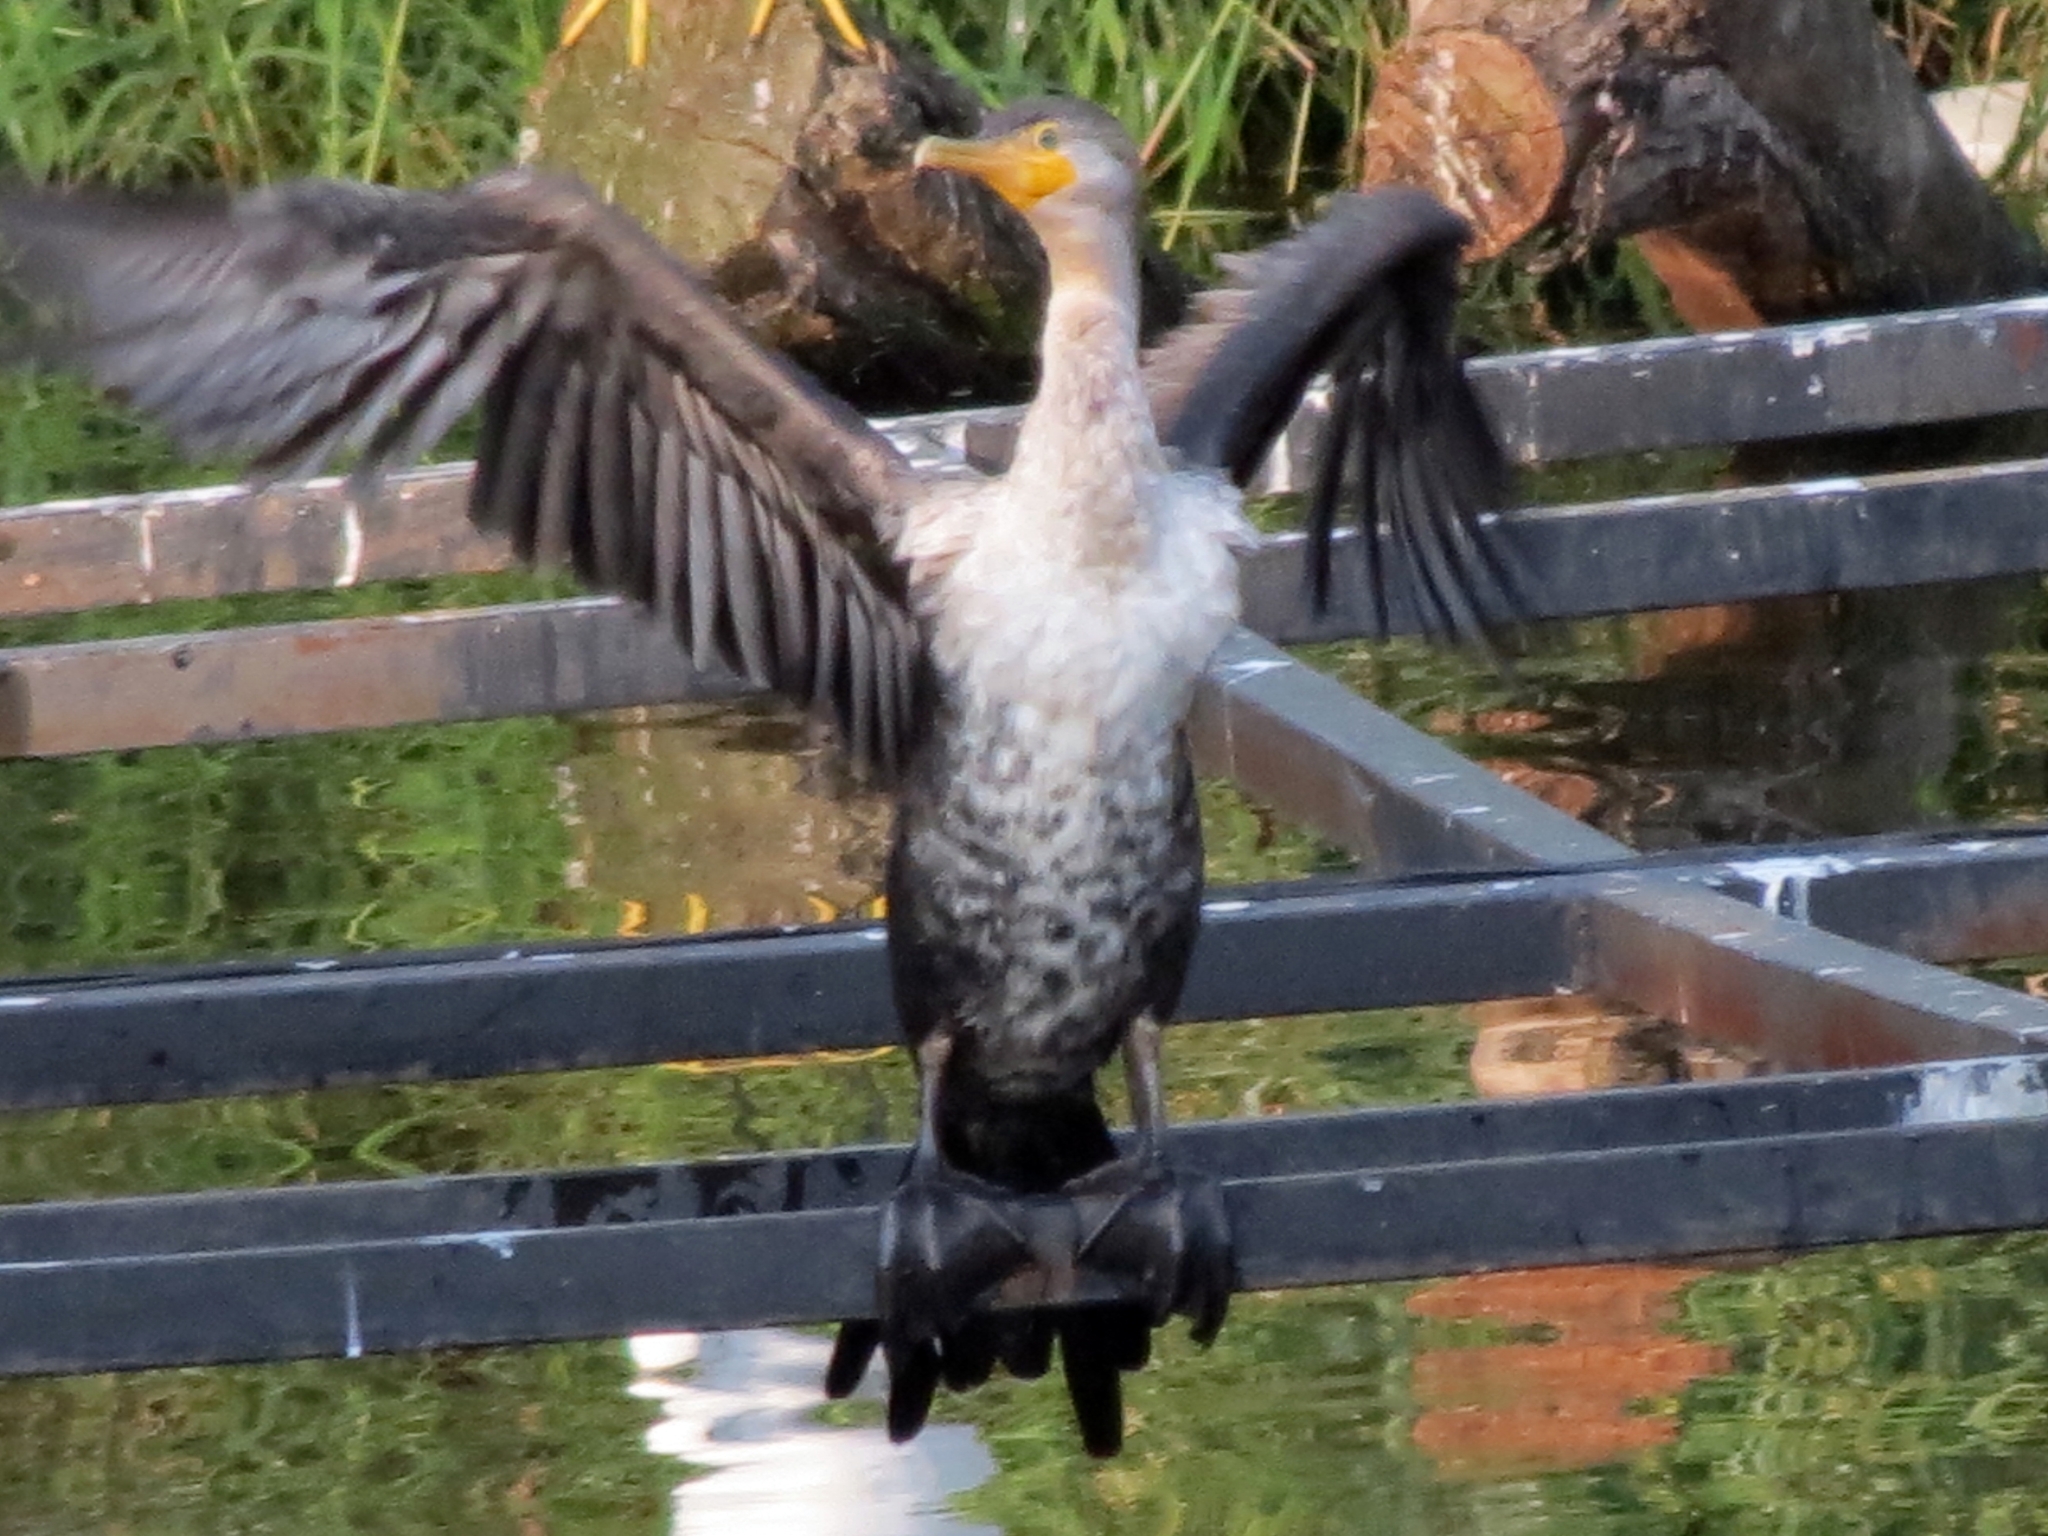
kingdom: Animalia
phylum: Chordata
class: Aves
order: Suliformes
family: Phalacrocoracidae
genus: Phalacrocorax
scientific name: Phalacrocorax brasilianus
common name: Neotropic cormorant
